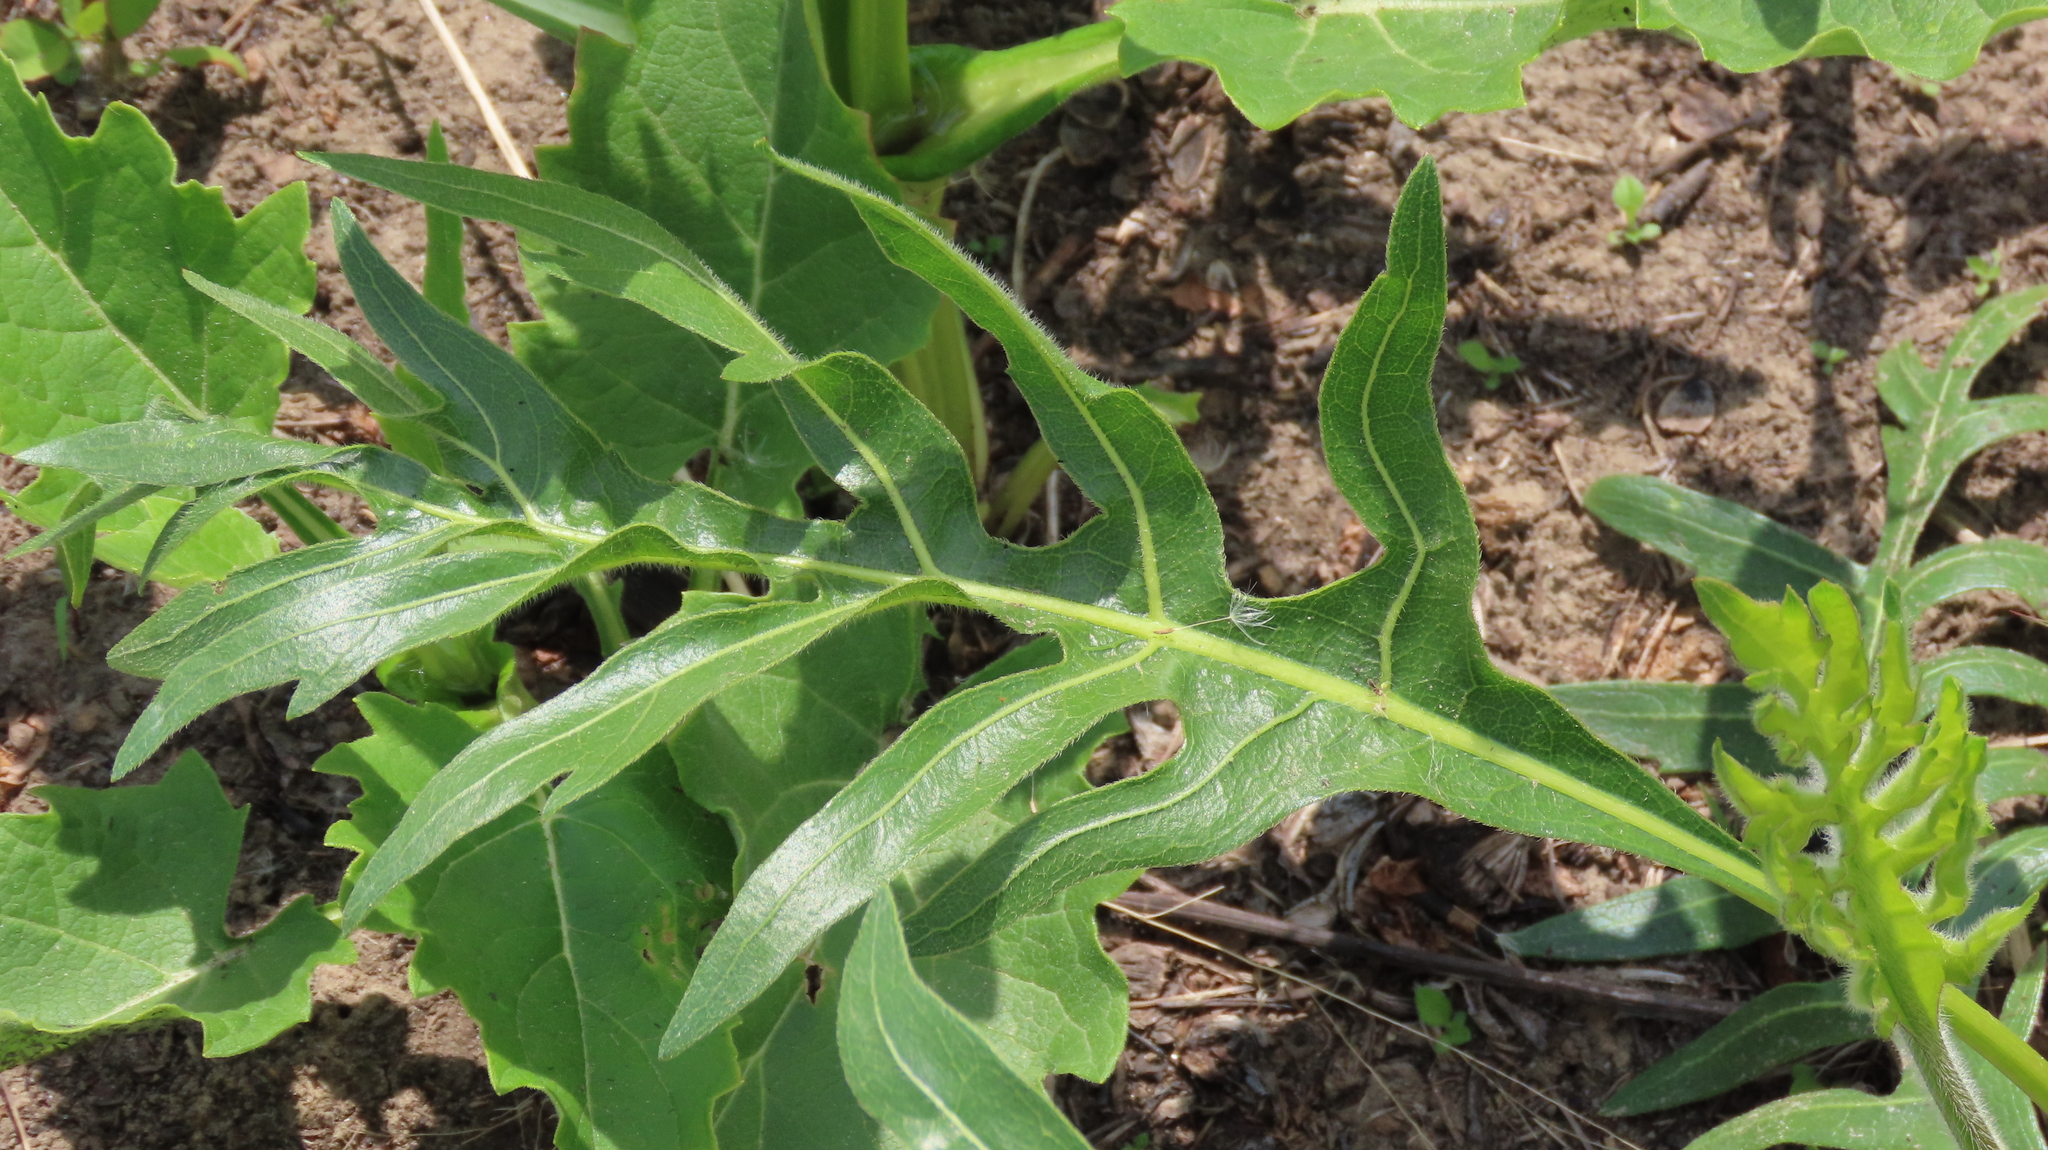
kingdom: Plantae
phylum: Tracheophyta
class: Magnoliopsida
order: Asterales
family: Asteraceae
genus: Silphium
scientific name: Silphium laciniatum
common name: Polarplant
